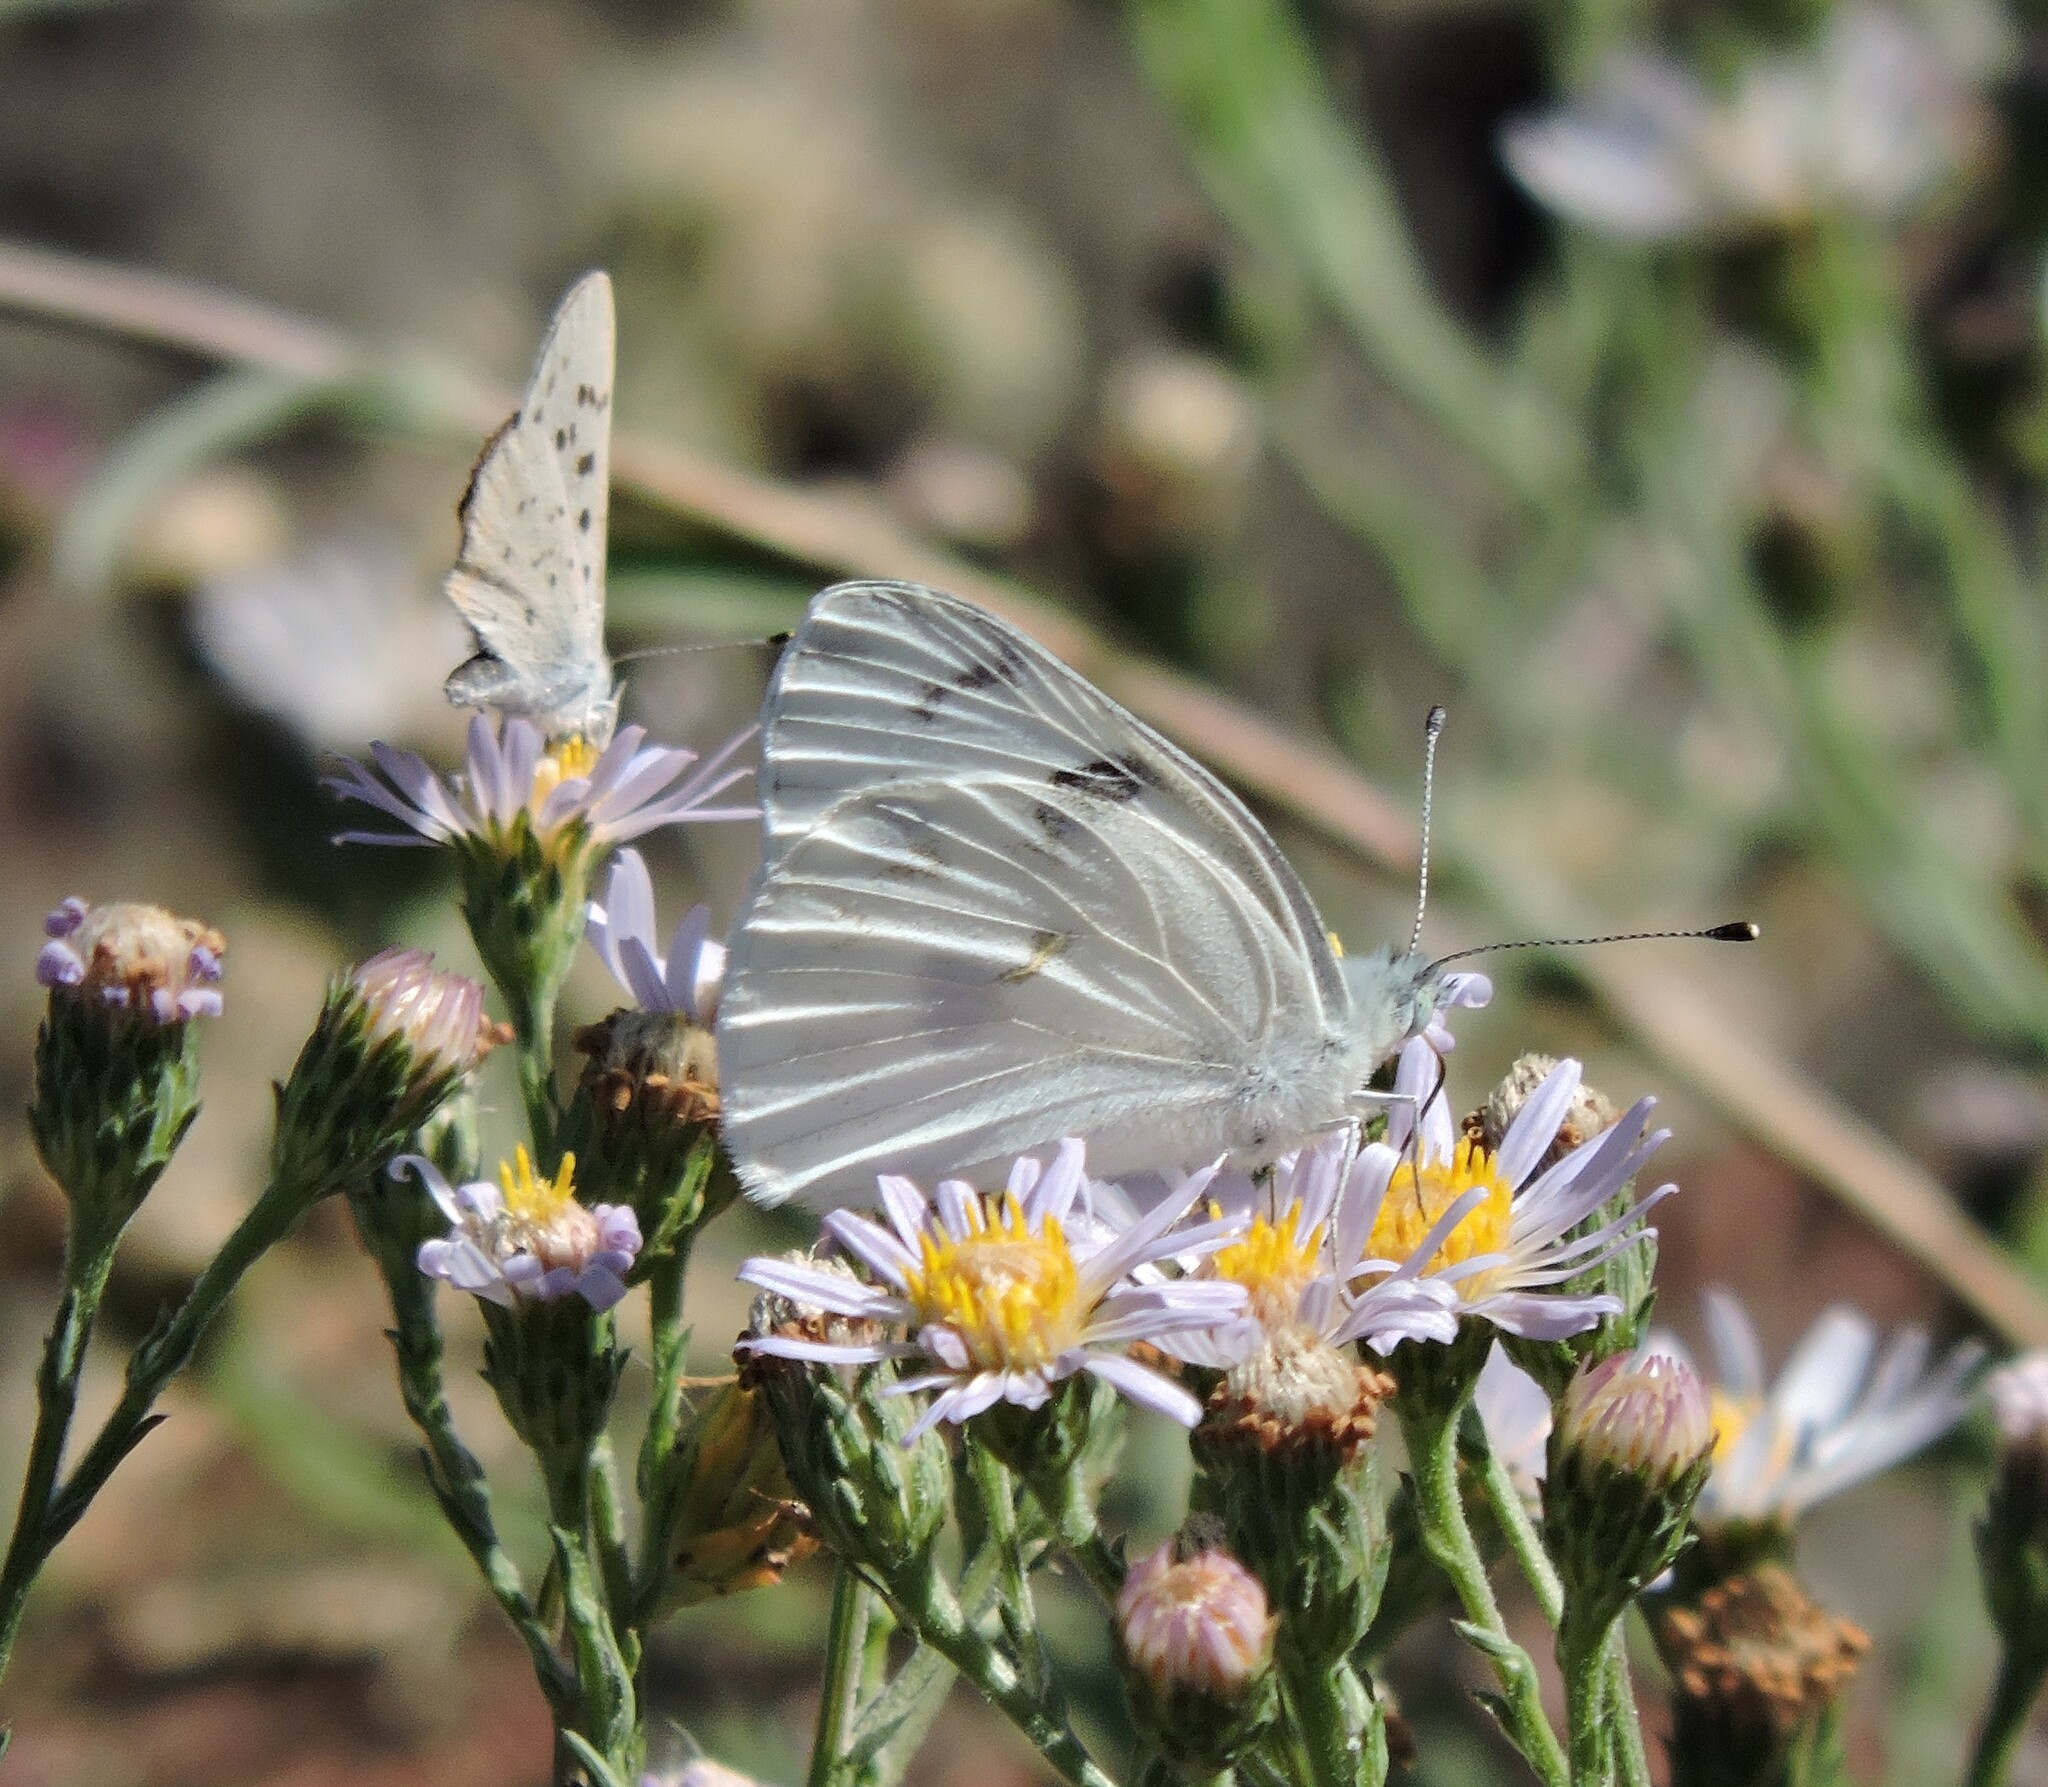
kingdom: Animalia
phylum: Arthropoda
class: Insecta
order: Lepidoptera
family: Pieridae
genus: Pontia
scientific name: Pontia protodice
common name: Checkered white
